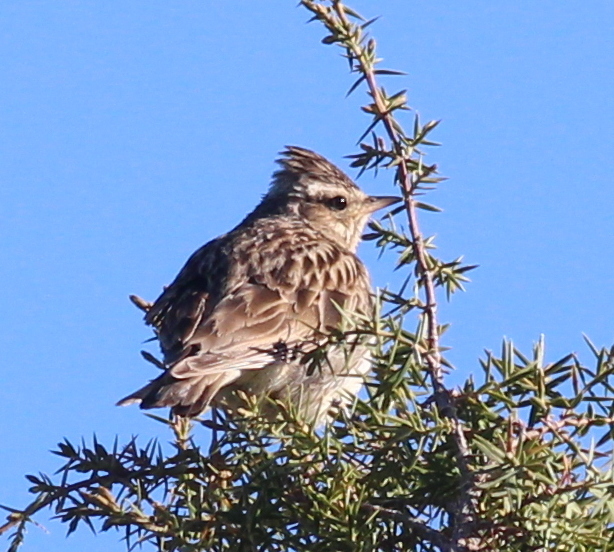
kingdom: Animalia
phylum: Chordata
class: Aves
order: Passeriformes
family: Alaudidae
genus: Lullula
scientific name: Lullula arborea
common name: Woodlark
